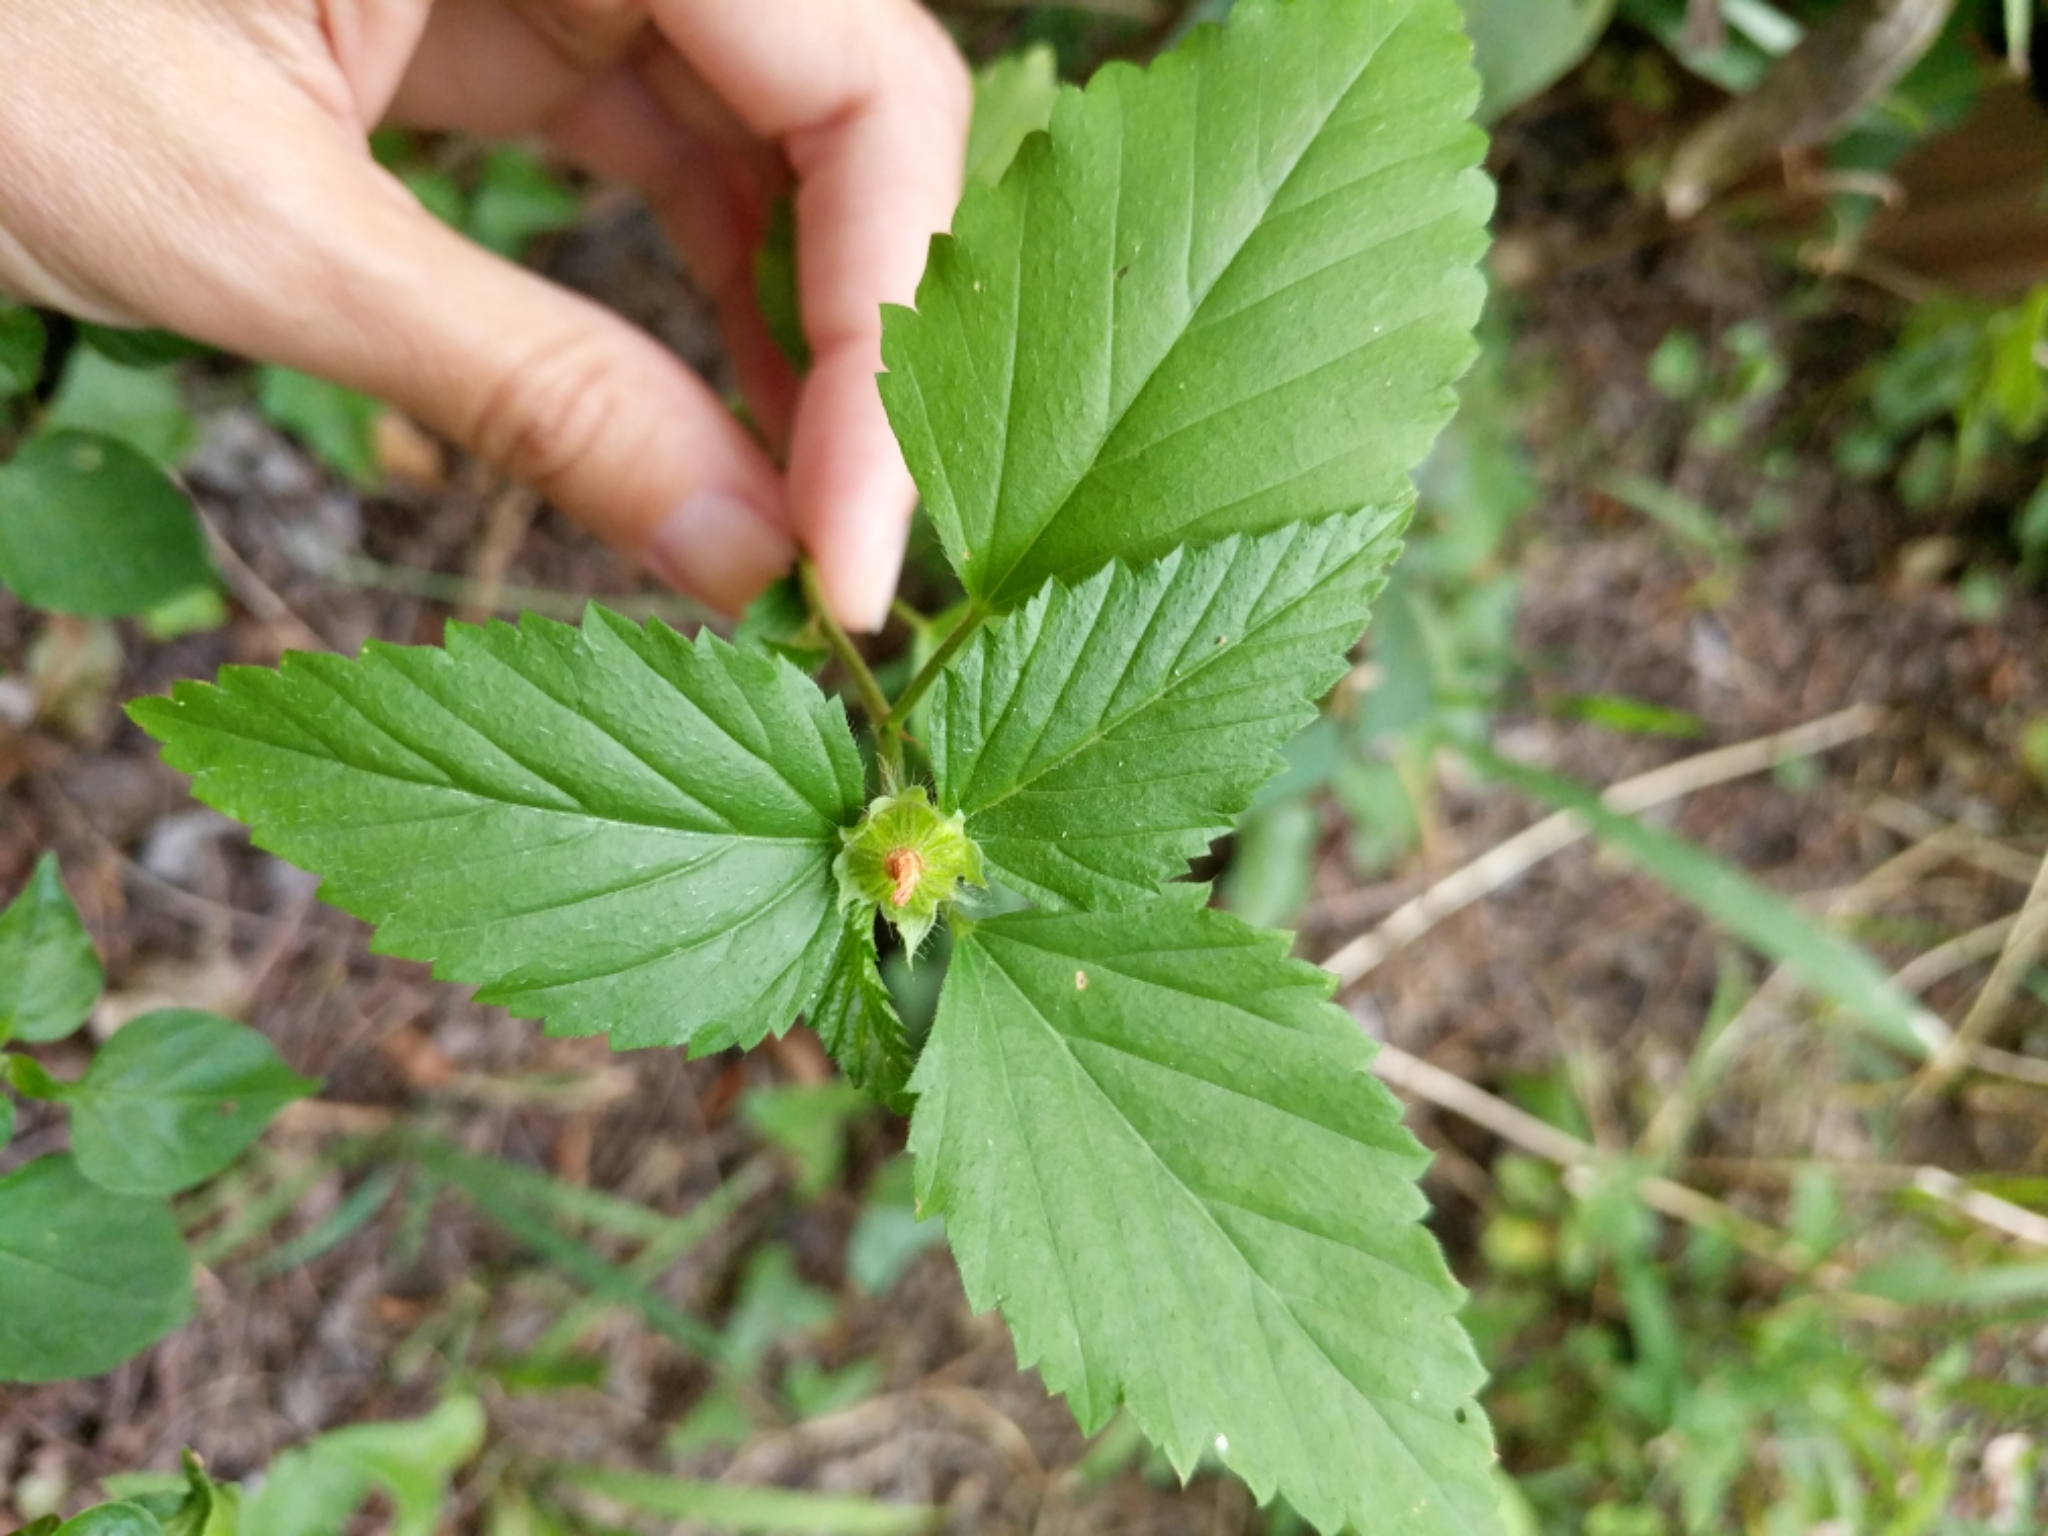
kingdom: Plantae
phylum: Tracheophyta
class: Magnoliopsida
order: Malvales
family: Malvaceae
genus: Malvastrum
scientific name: Malvastrum coromandelianum
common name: Threelobe false mallow
